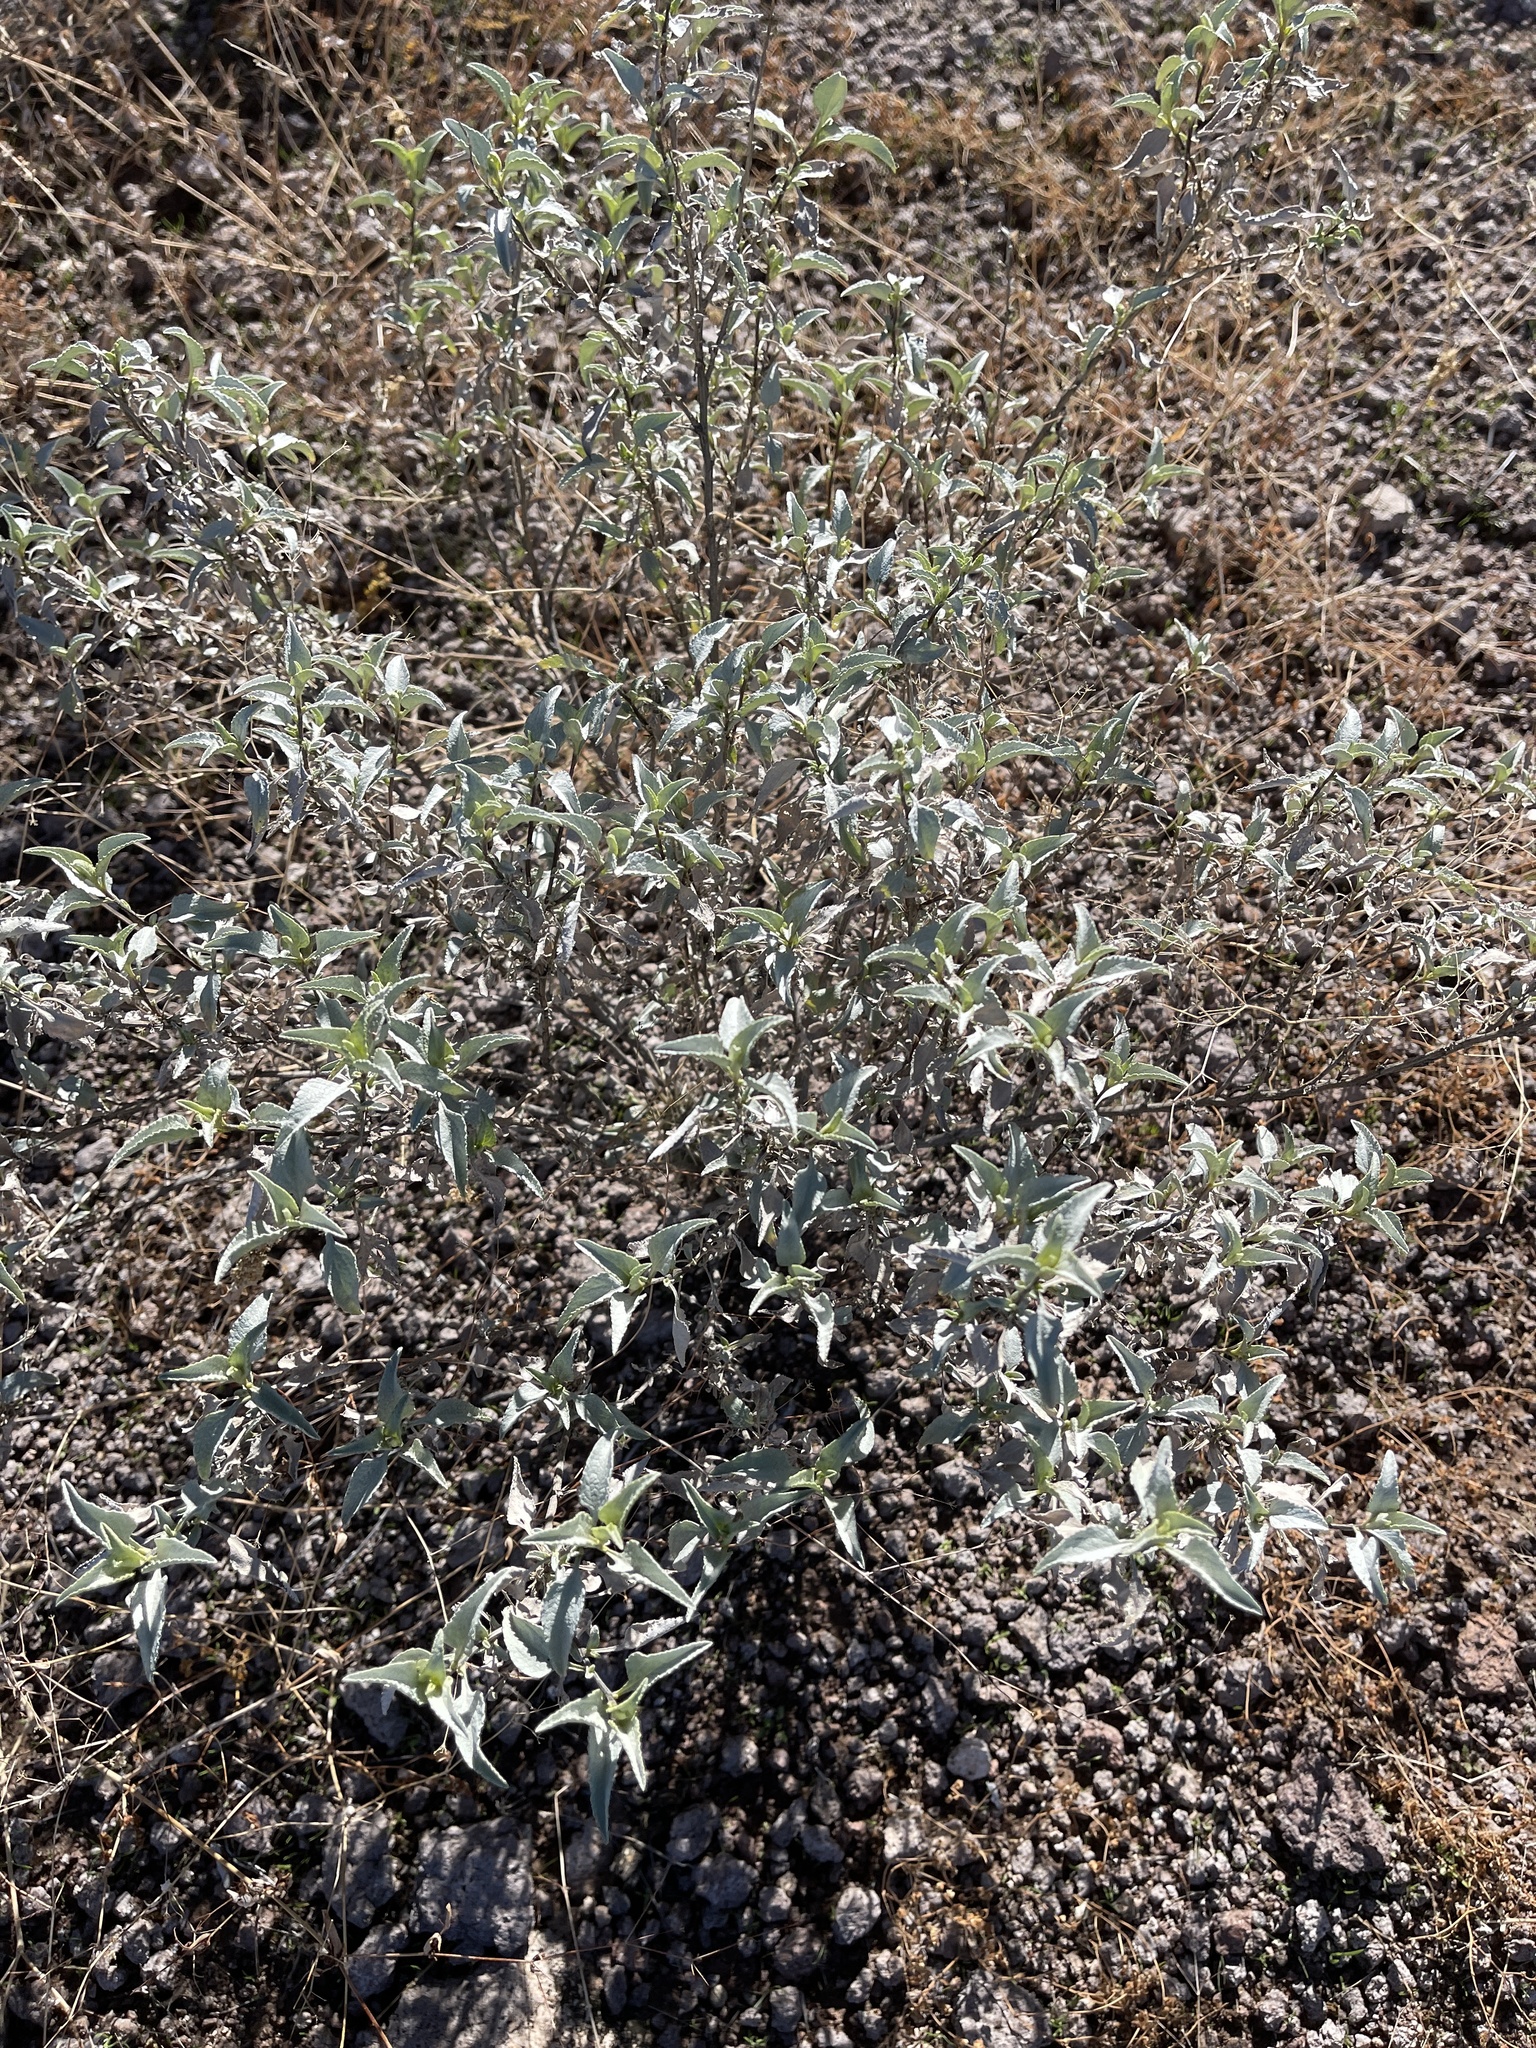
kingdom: Plantae
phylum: Tracheophyta
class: Magnoliopsida
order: Asterales
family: Asteraceae
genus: Ambrosia
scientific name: Ambrosia deltoidea
